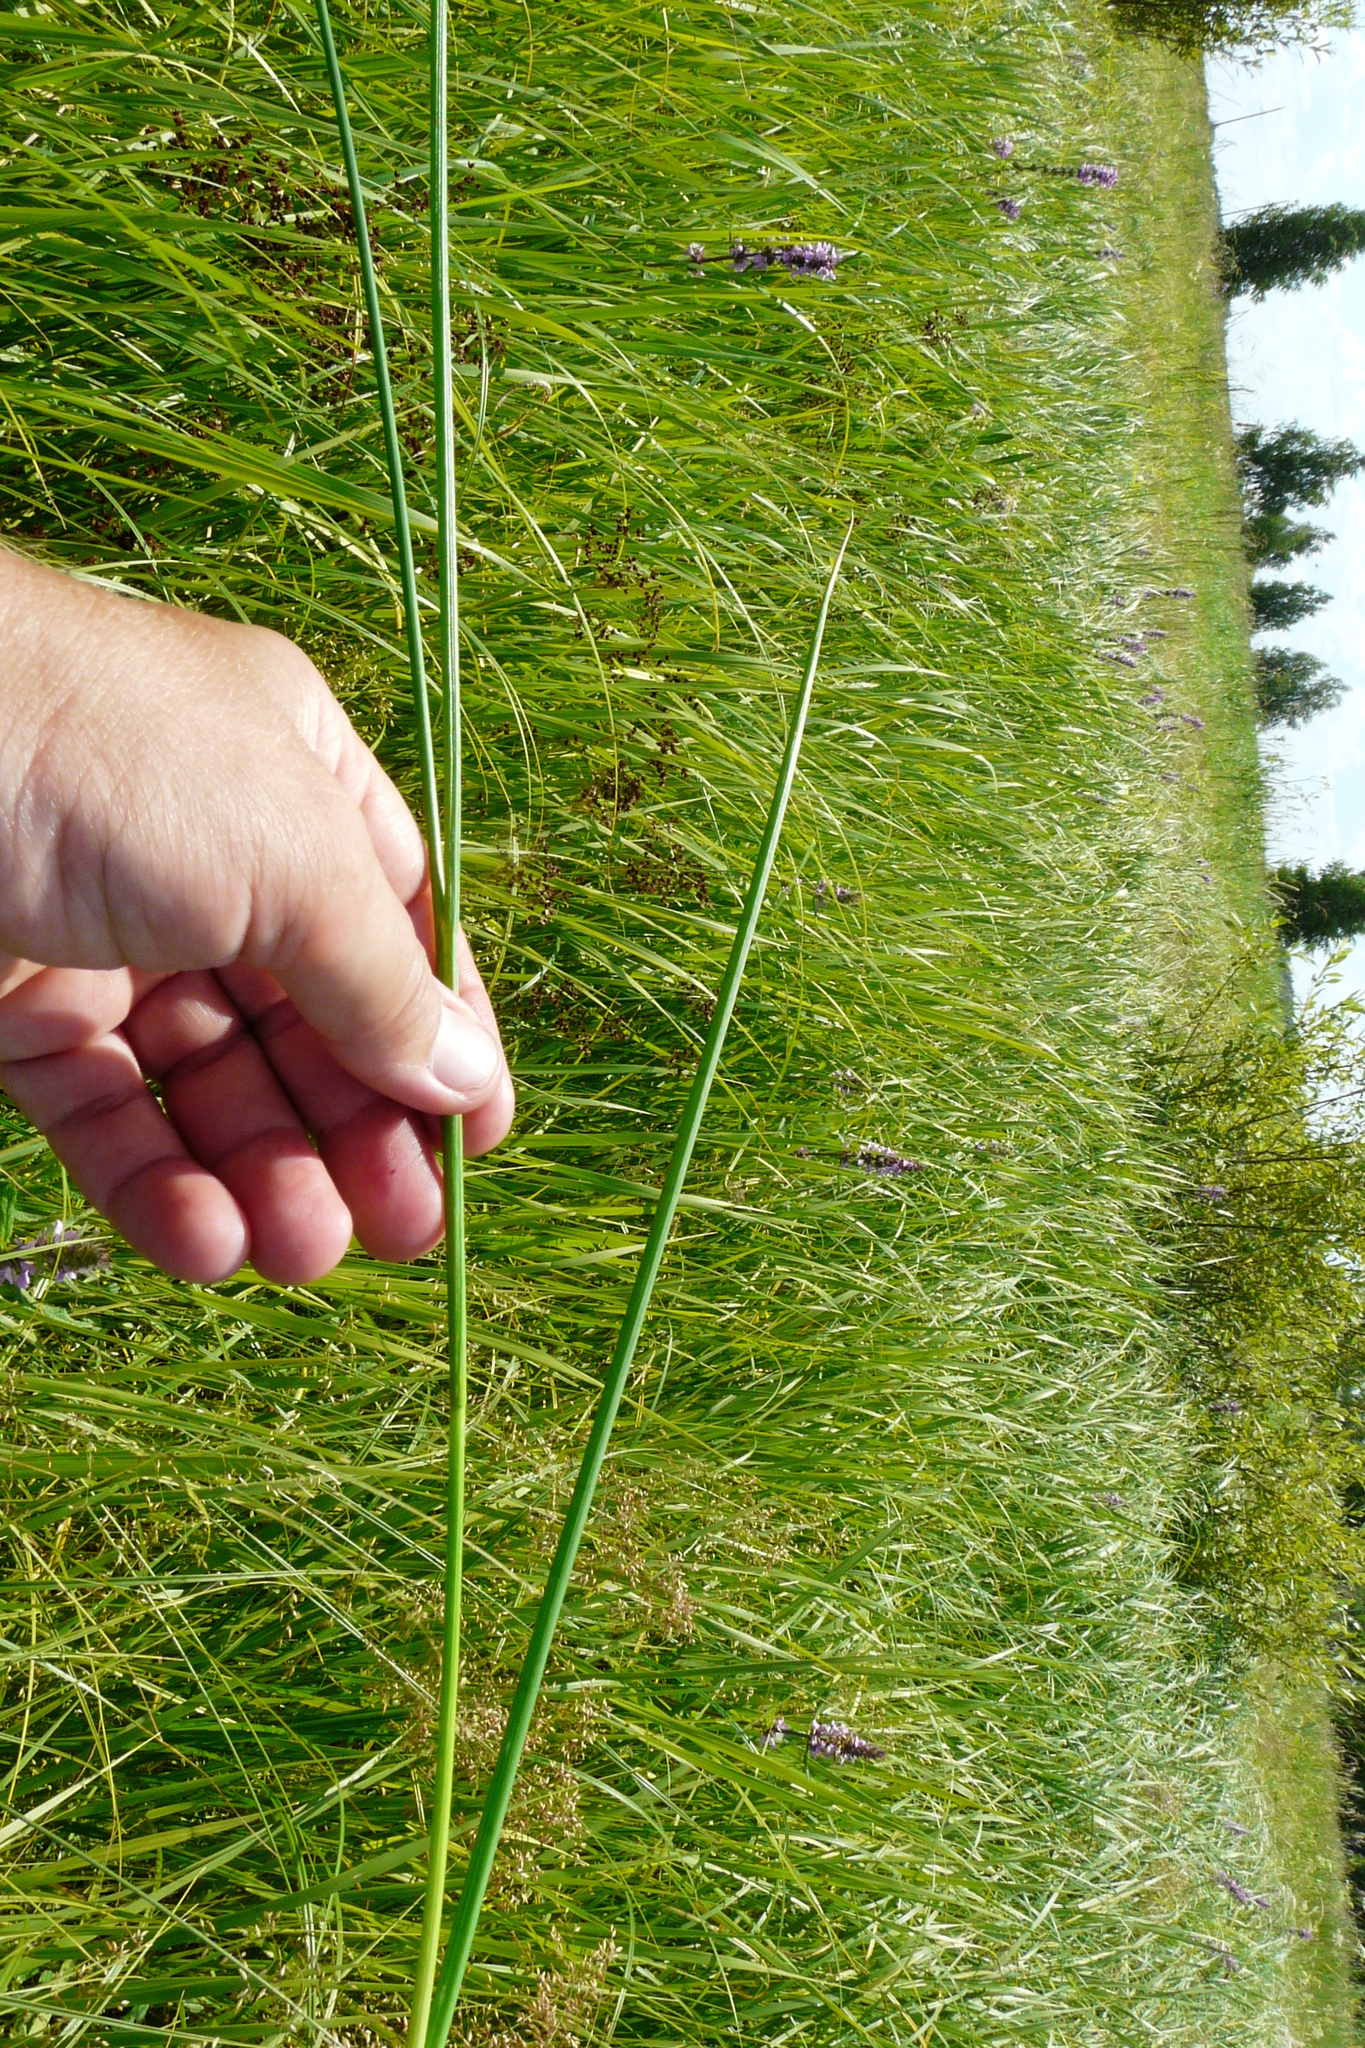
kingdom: Plantae
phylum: Tracheophyta
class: Liliopsida
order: Poales
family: Juncaceae
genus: Juncus
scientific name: Juncus atratus
